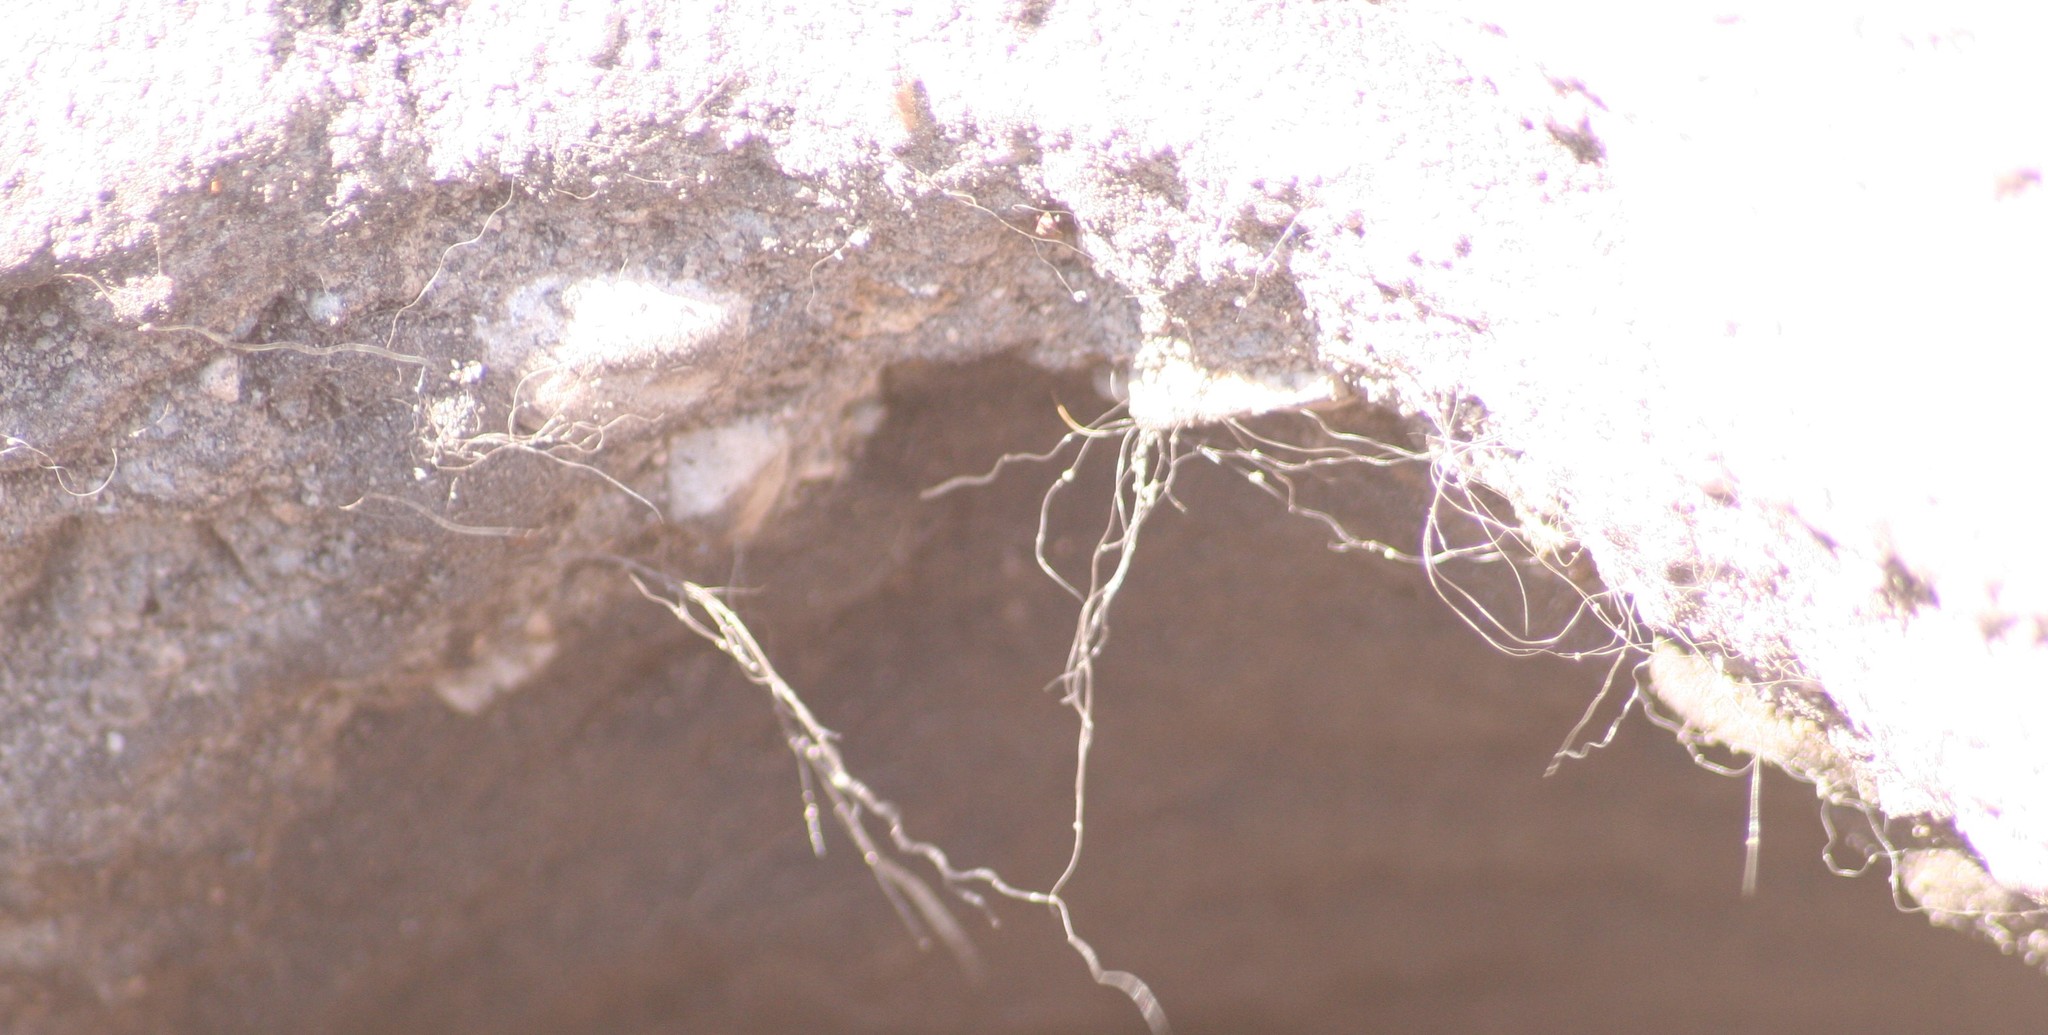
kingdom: Animalia
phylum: Chordata
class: Mammalia
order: Carnivora
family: Mustelidae
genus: Taxidea
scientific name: Taxidea taxus
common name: American badger
